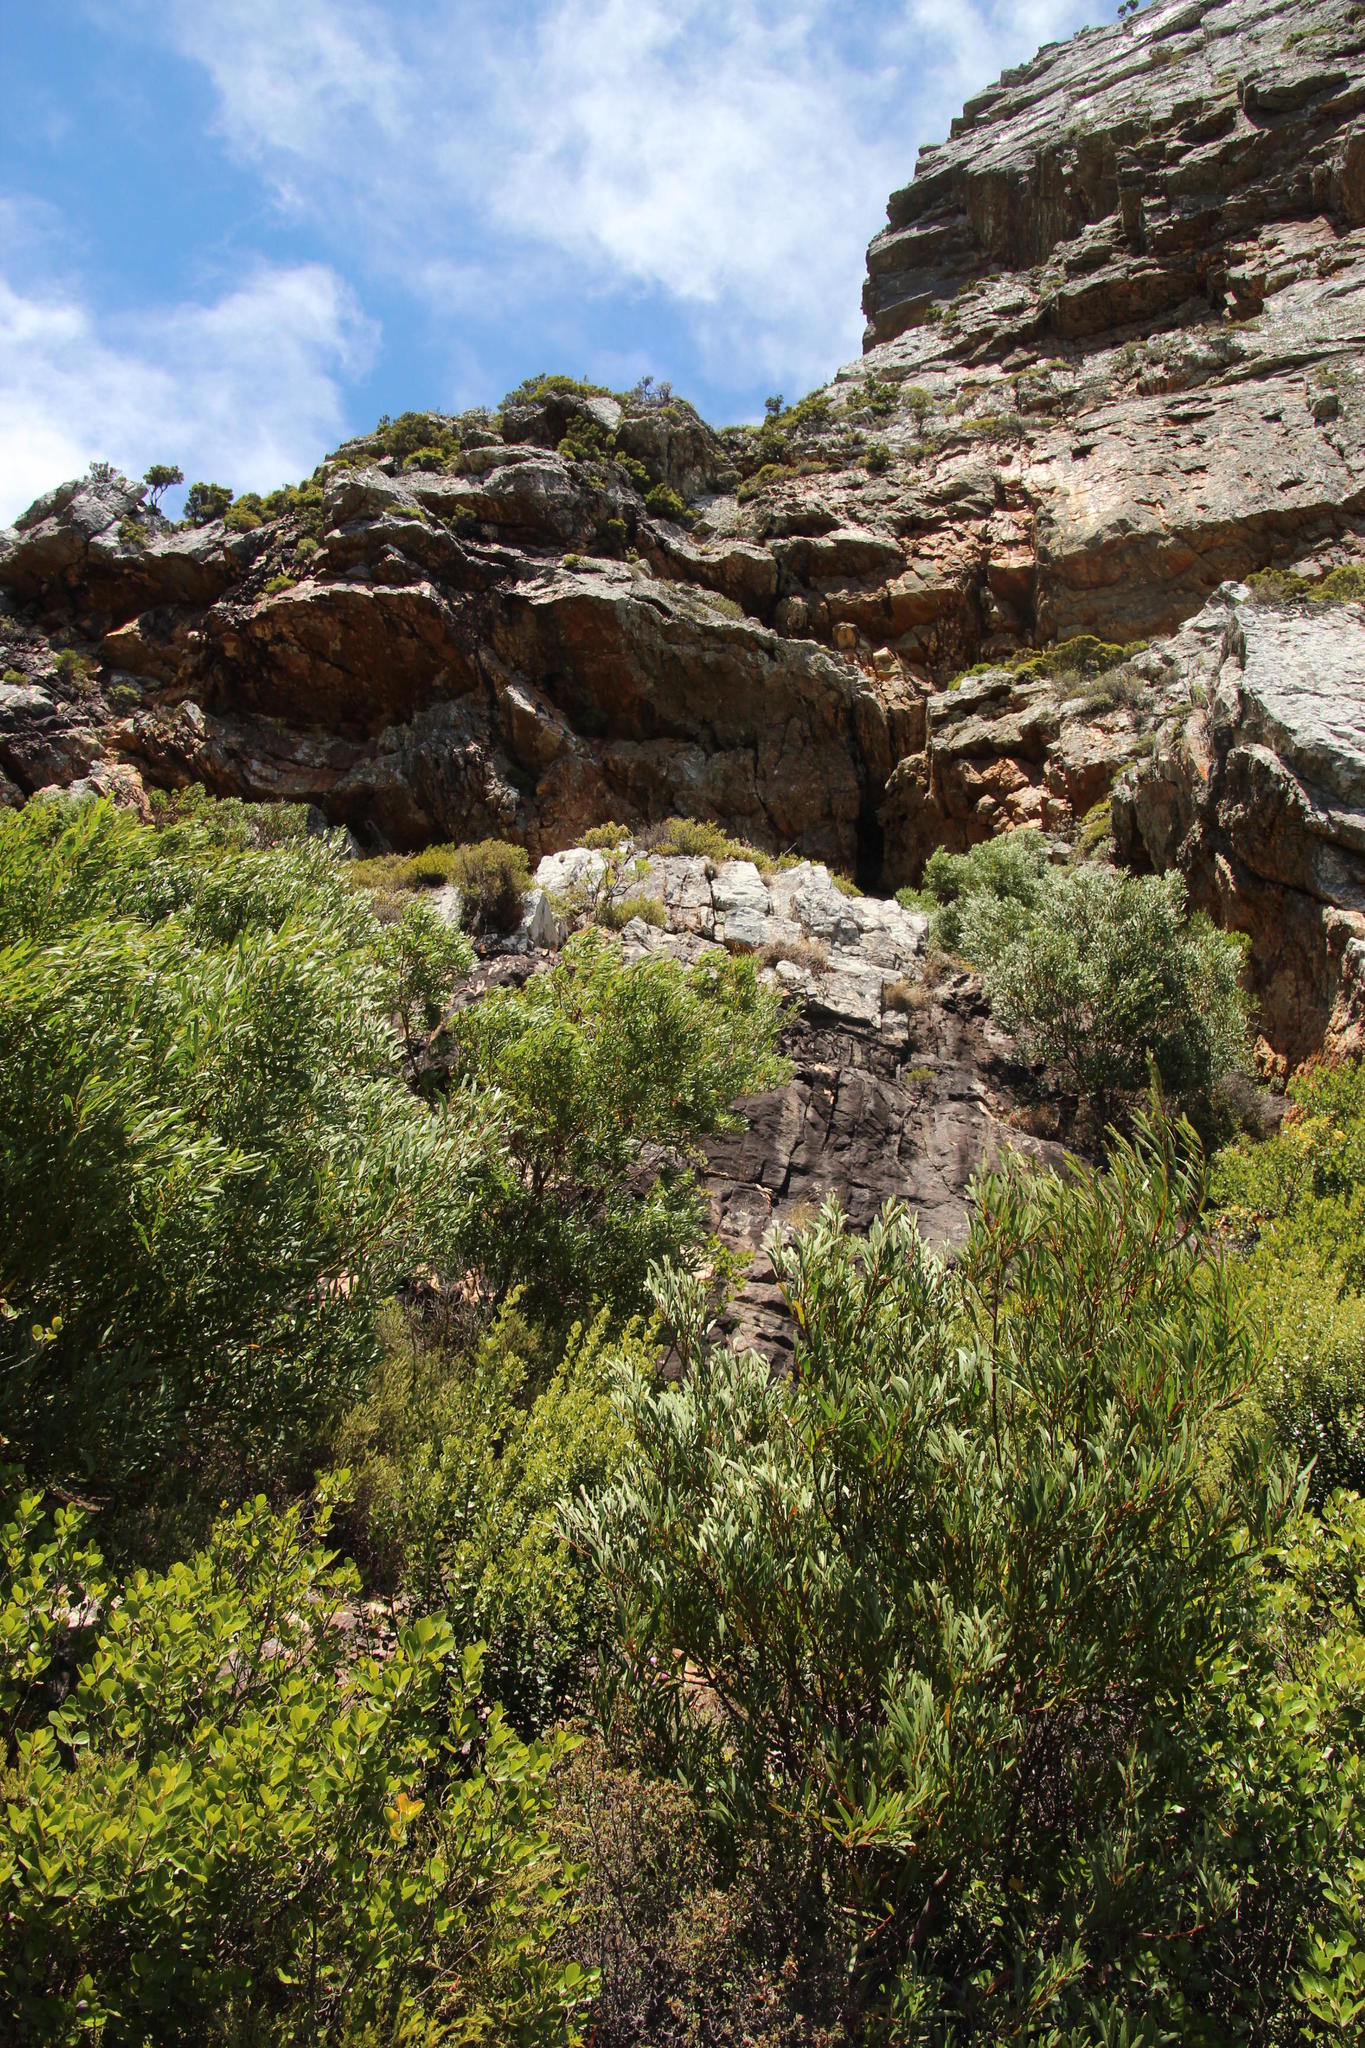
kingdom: Plantae
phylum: Tracheophyta
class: Magnoliopsida
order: Fabales
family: Fabaceae
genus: Acacia
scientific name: Acacia cyclops
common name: Coastal wattle
